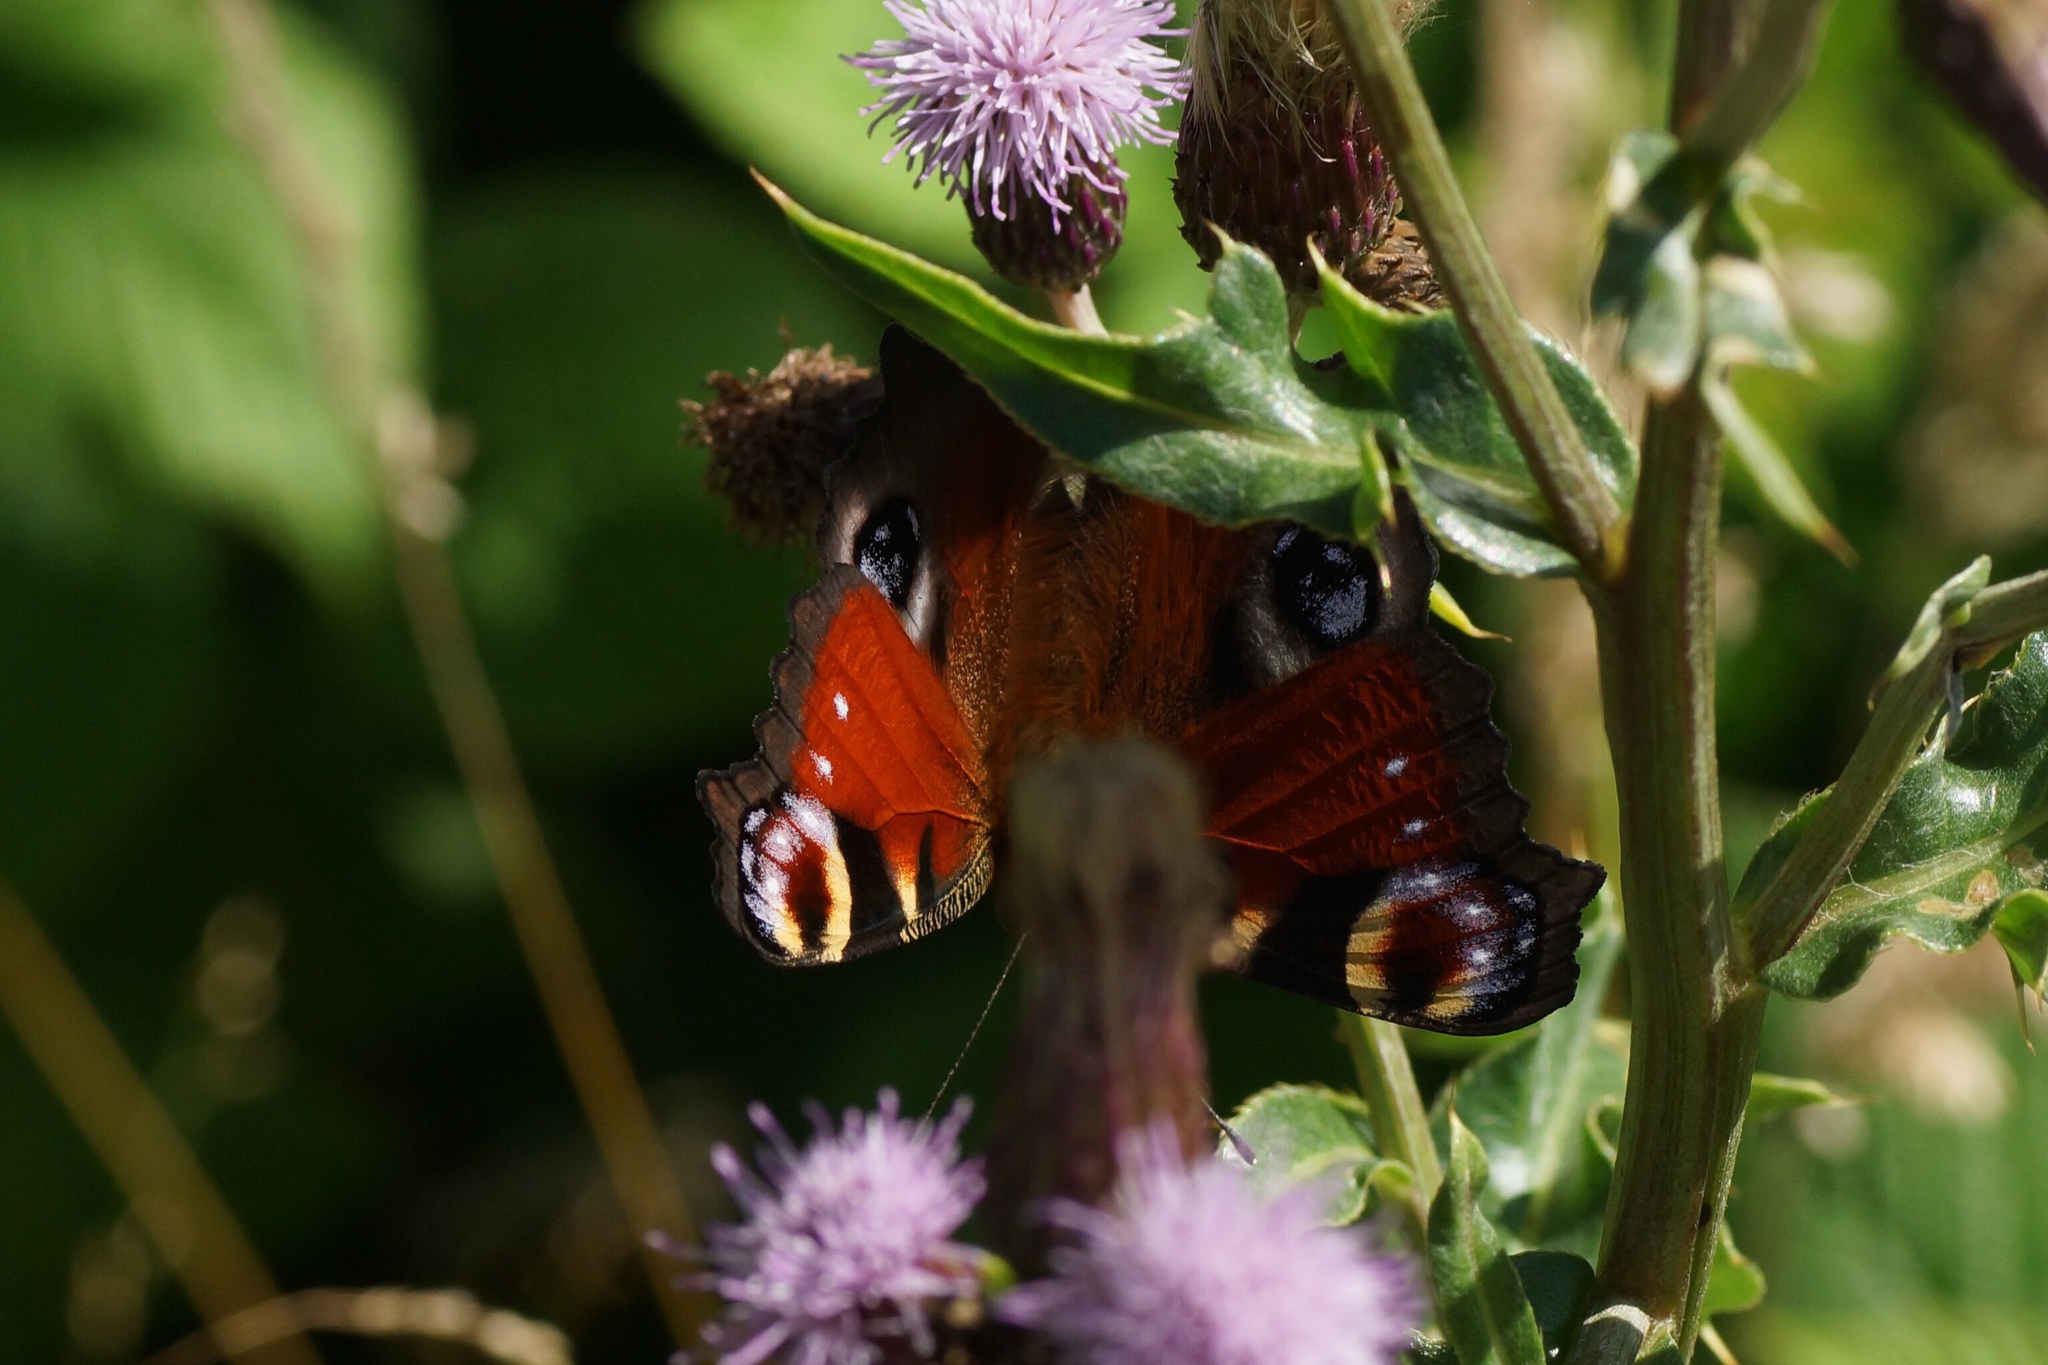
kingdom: Animalia
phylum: Arthropoda
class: Insecta
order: Lepidoptera
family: Nymphalidae
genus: Aglais
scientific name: Aglais io
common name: Peacock
